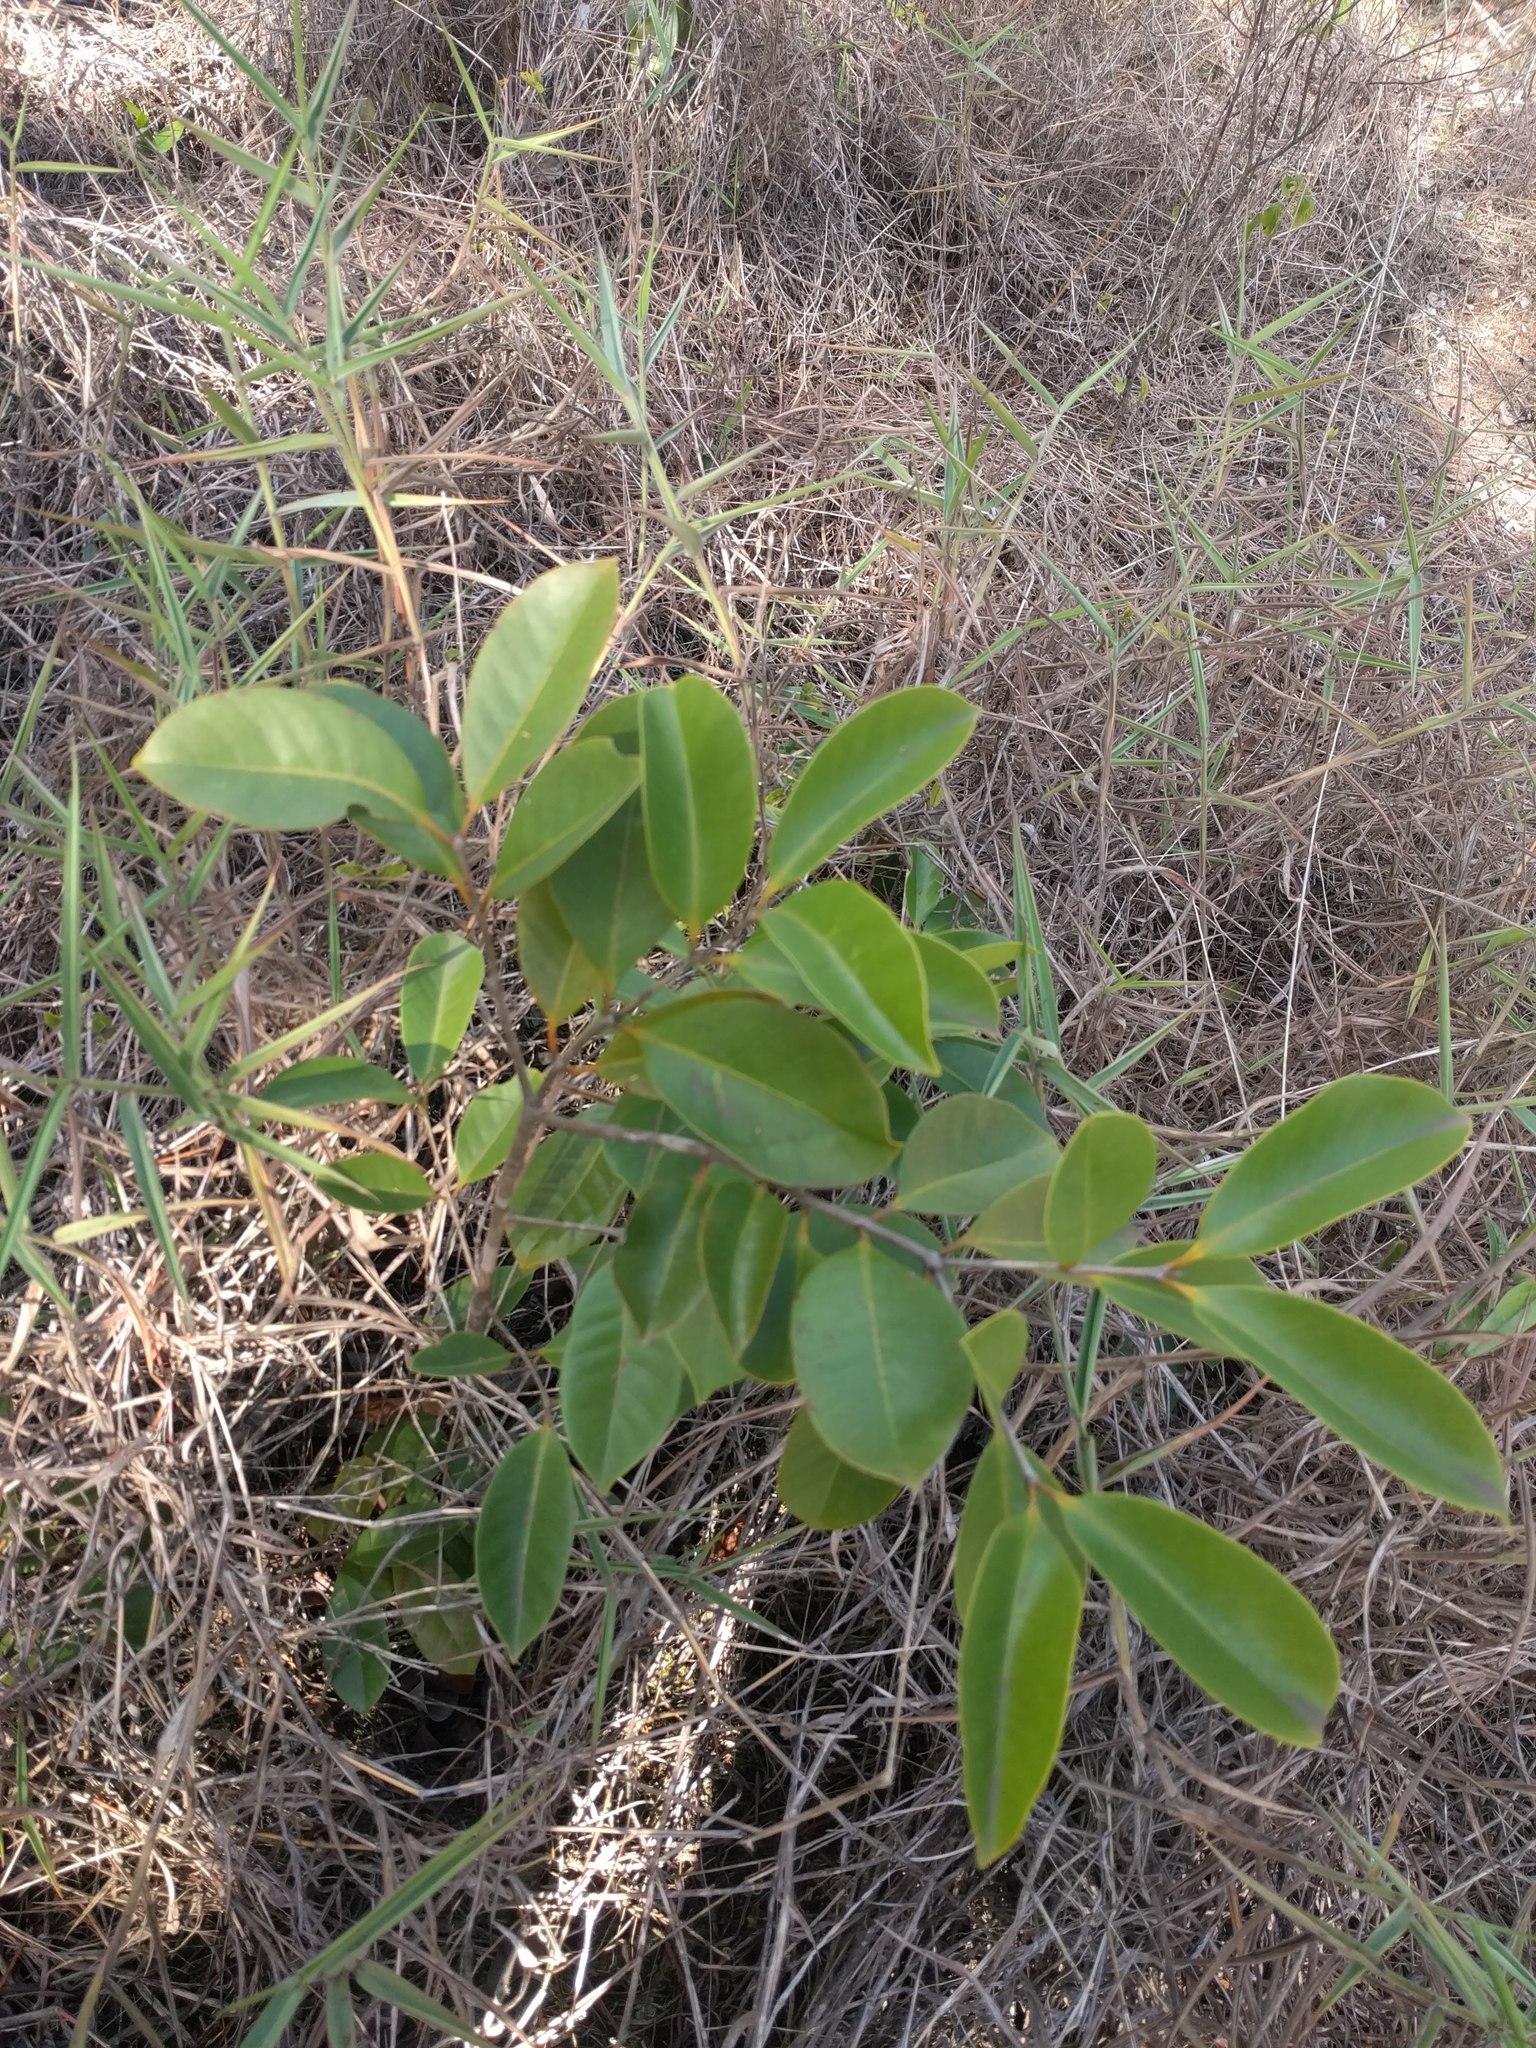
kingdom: Plantae
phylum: Tracheophyta
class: Magnoliopsida
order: Myrtales
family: Myrtaceae
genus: Psidium
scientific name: Psidium cattleianum
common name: Strawberry guava
